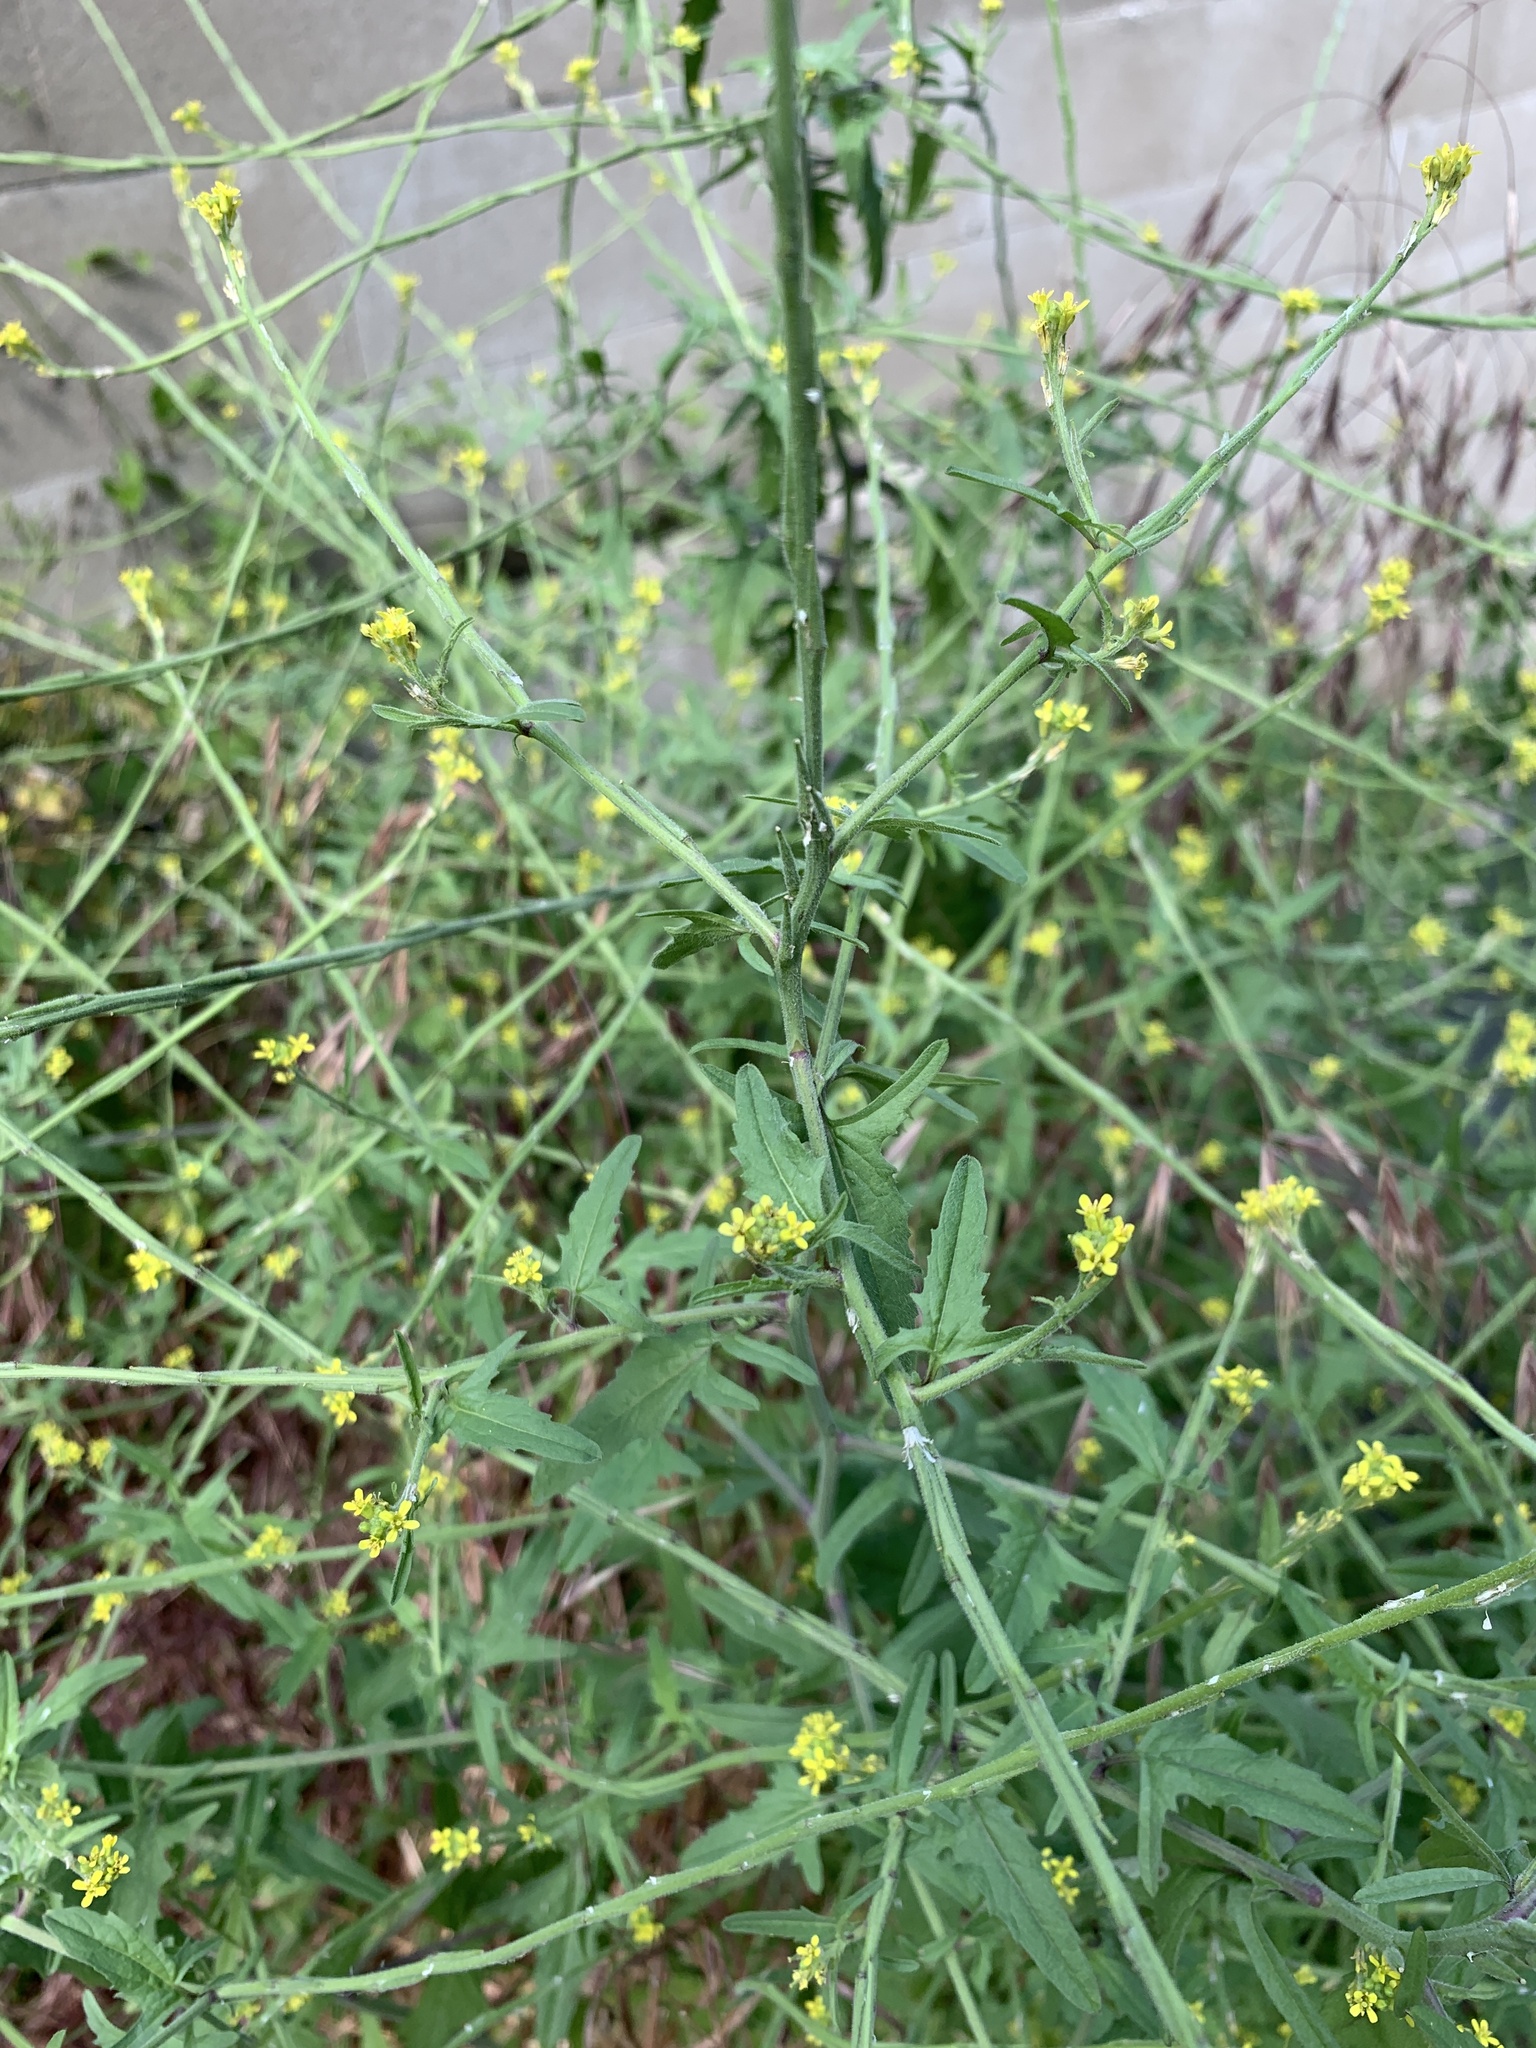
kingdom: Plantae
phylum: Tracheophyta
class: Magnoliopsida
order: Brassicales
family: Brassicaceae
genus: Sisymbrium
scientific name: Sisymbrium officinale
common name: Hedge mustard
